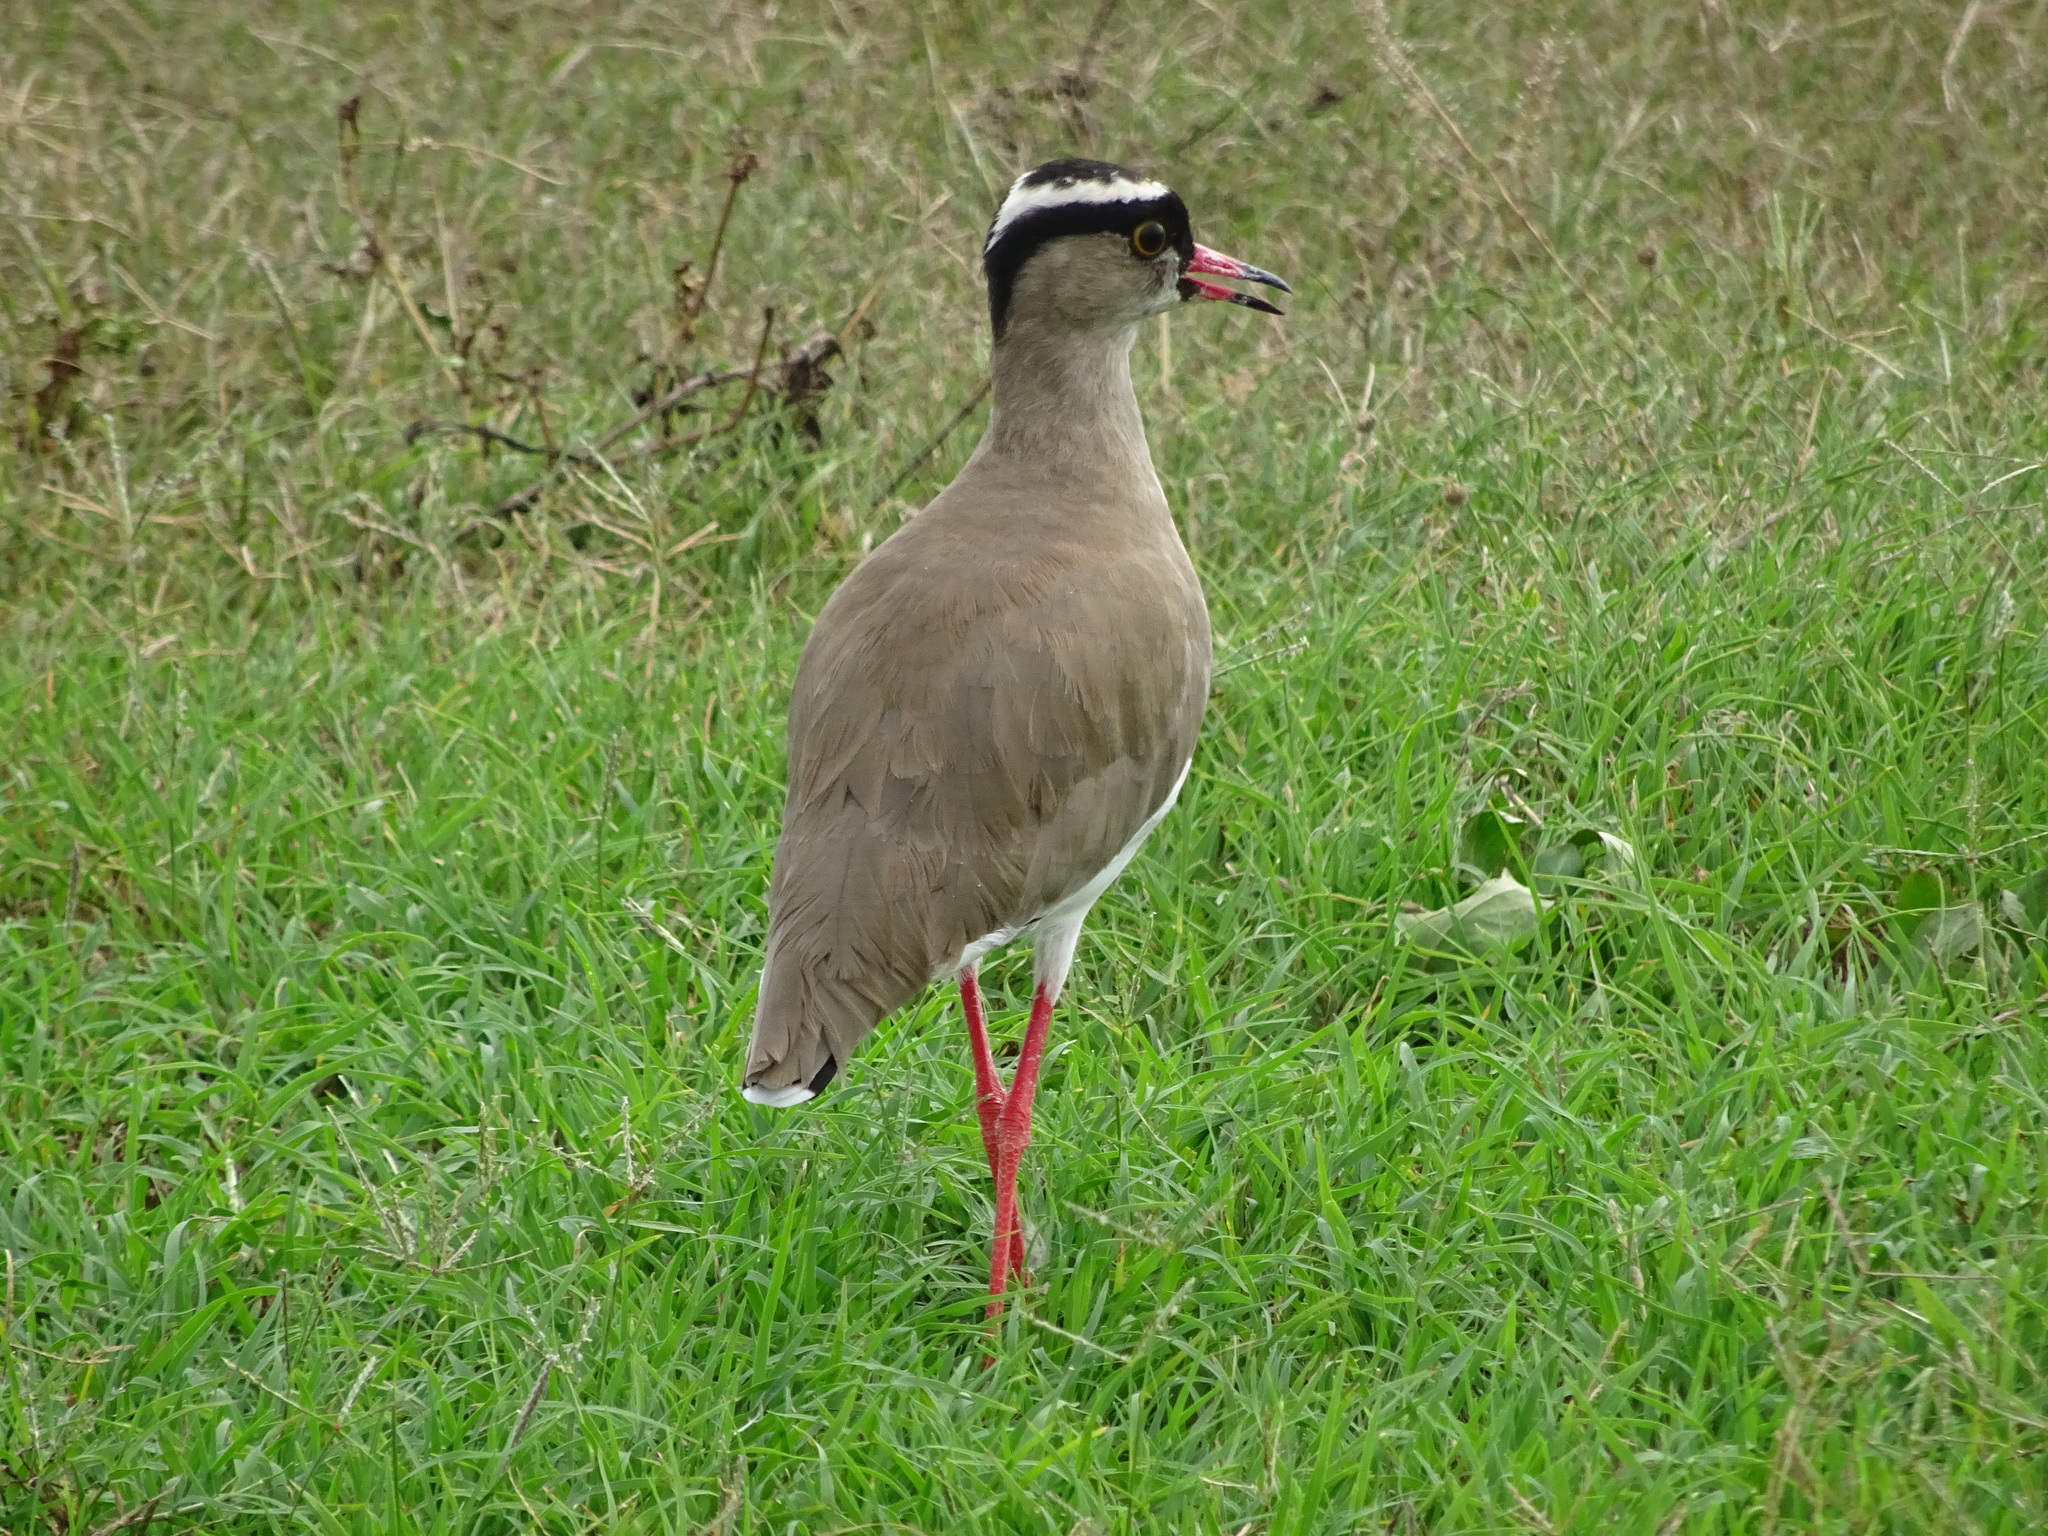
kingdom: Animalia
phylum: Chordata
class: Aves
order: Charadriiformes
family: Charadriidae
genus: Vanellus
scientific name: Vanellus coronatus
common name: Crowned lapwing
